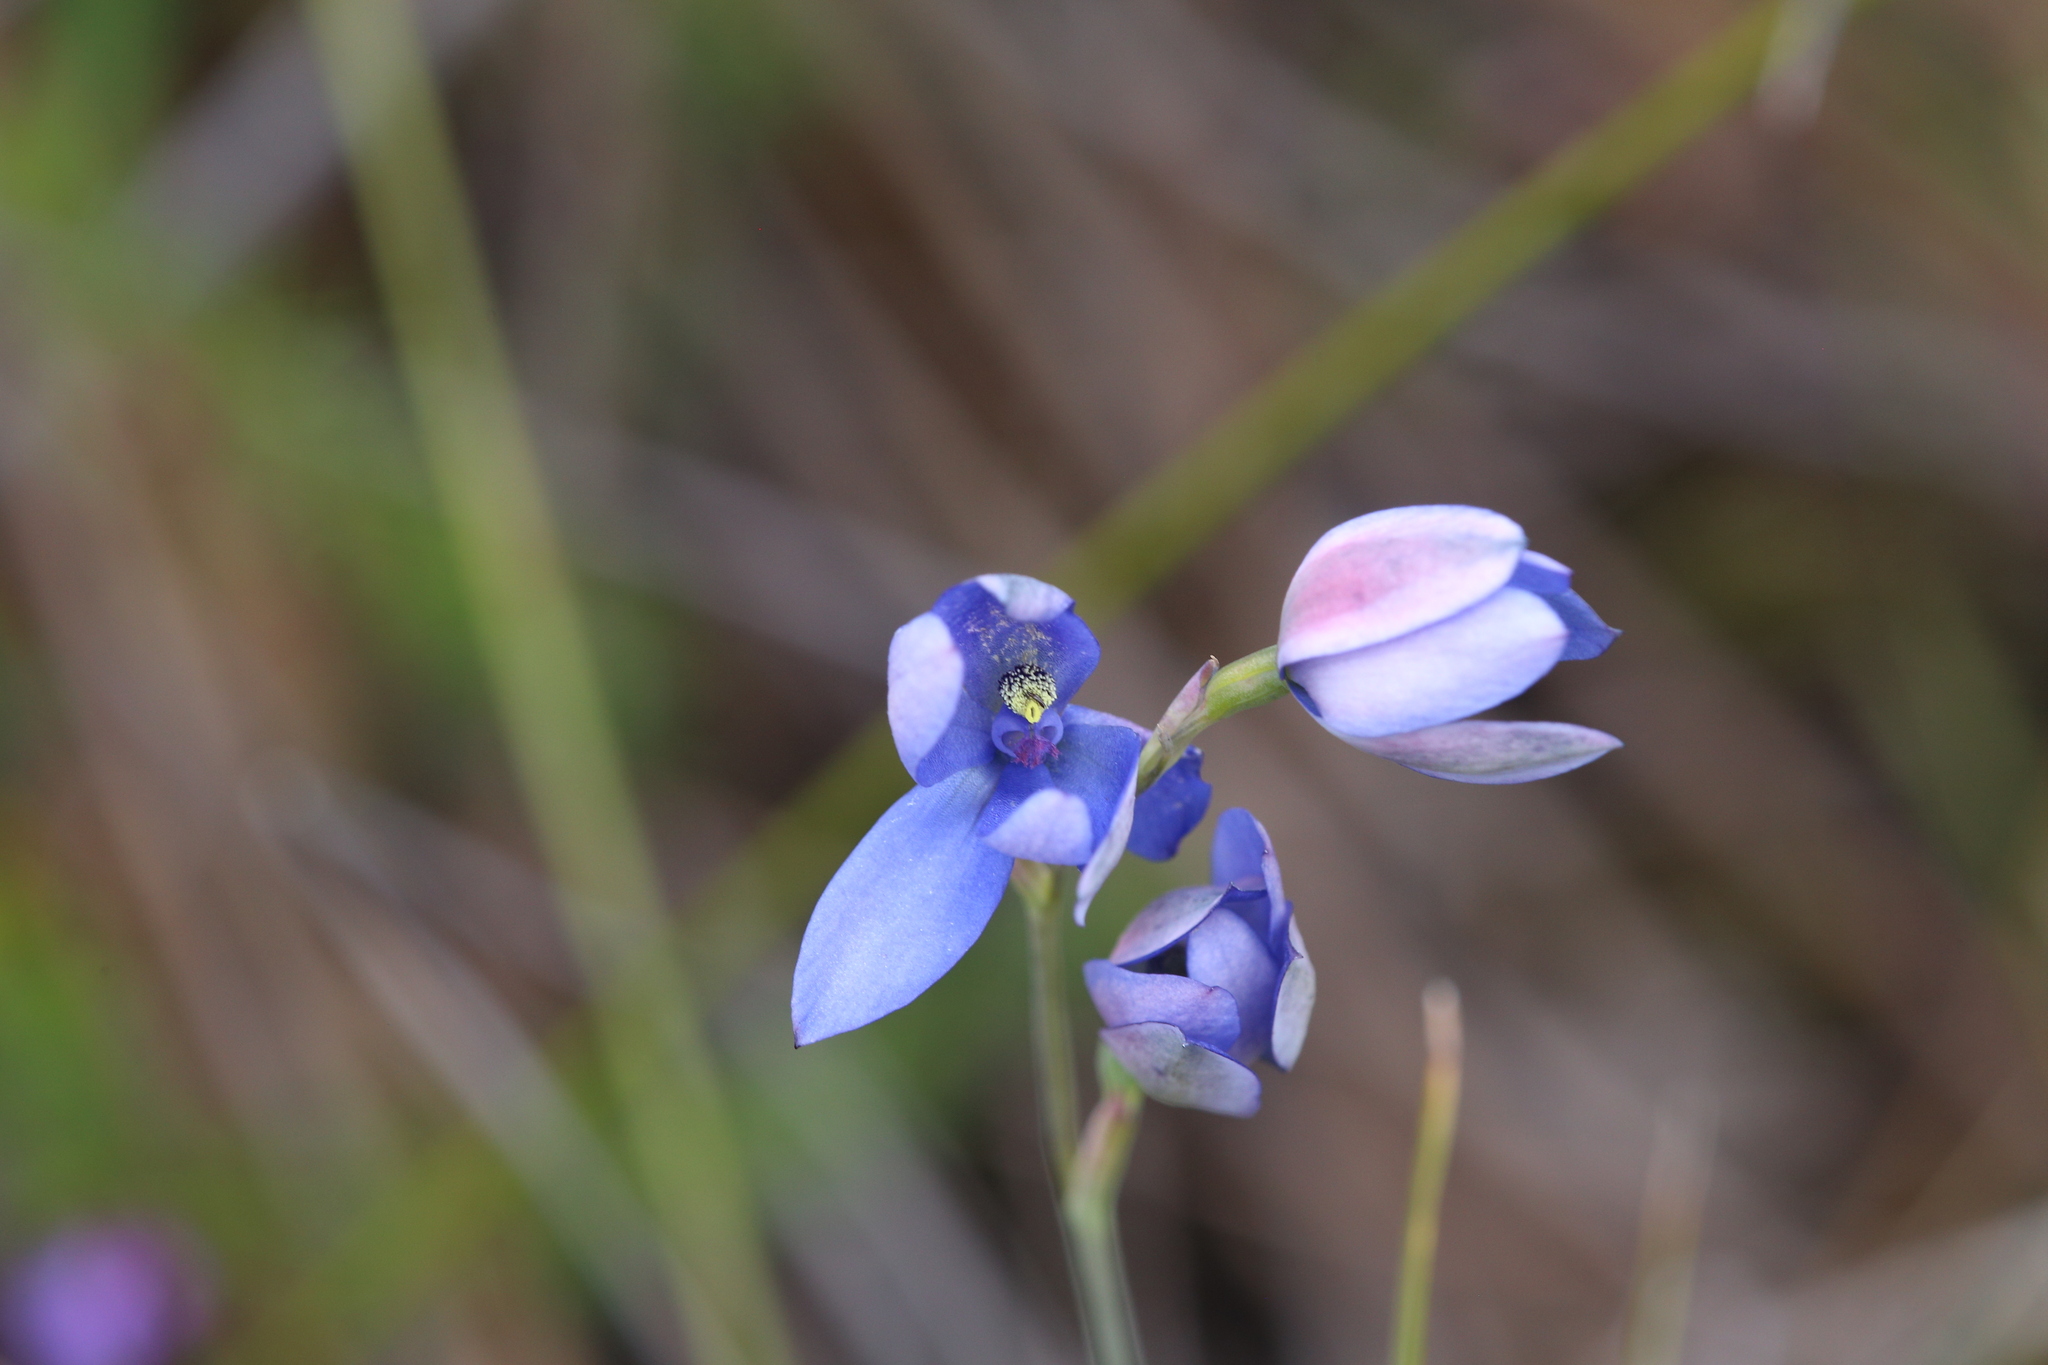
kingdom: Plantae
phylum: Tracheophyta
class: Liliopsida
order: Asparagales
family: Orchidaceae
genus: Thelymitra
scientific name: Thelymitra crinita
